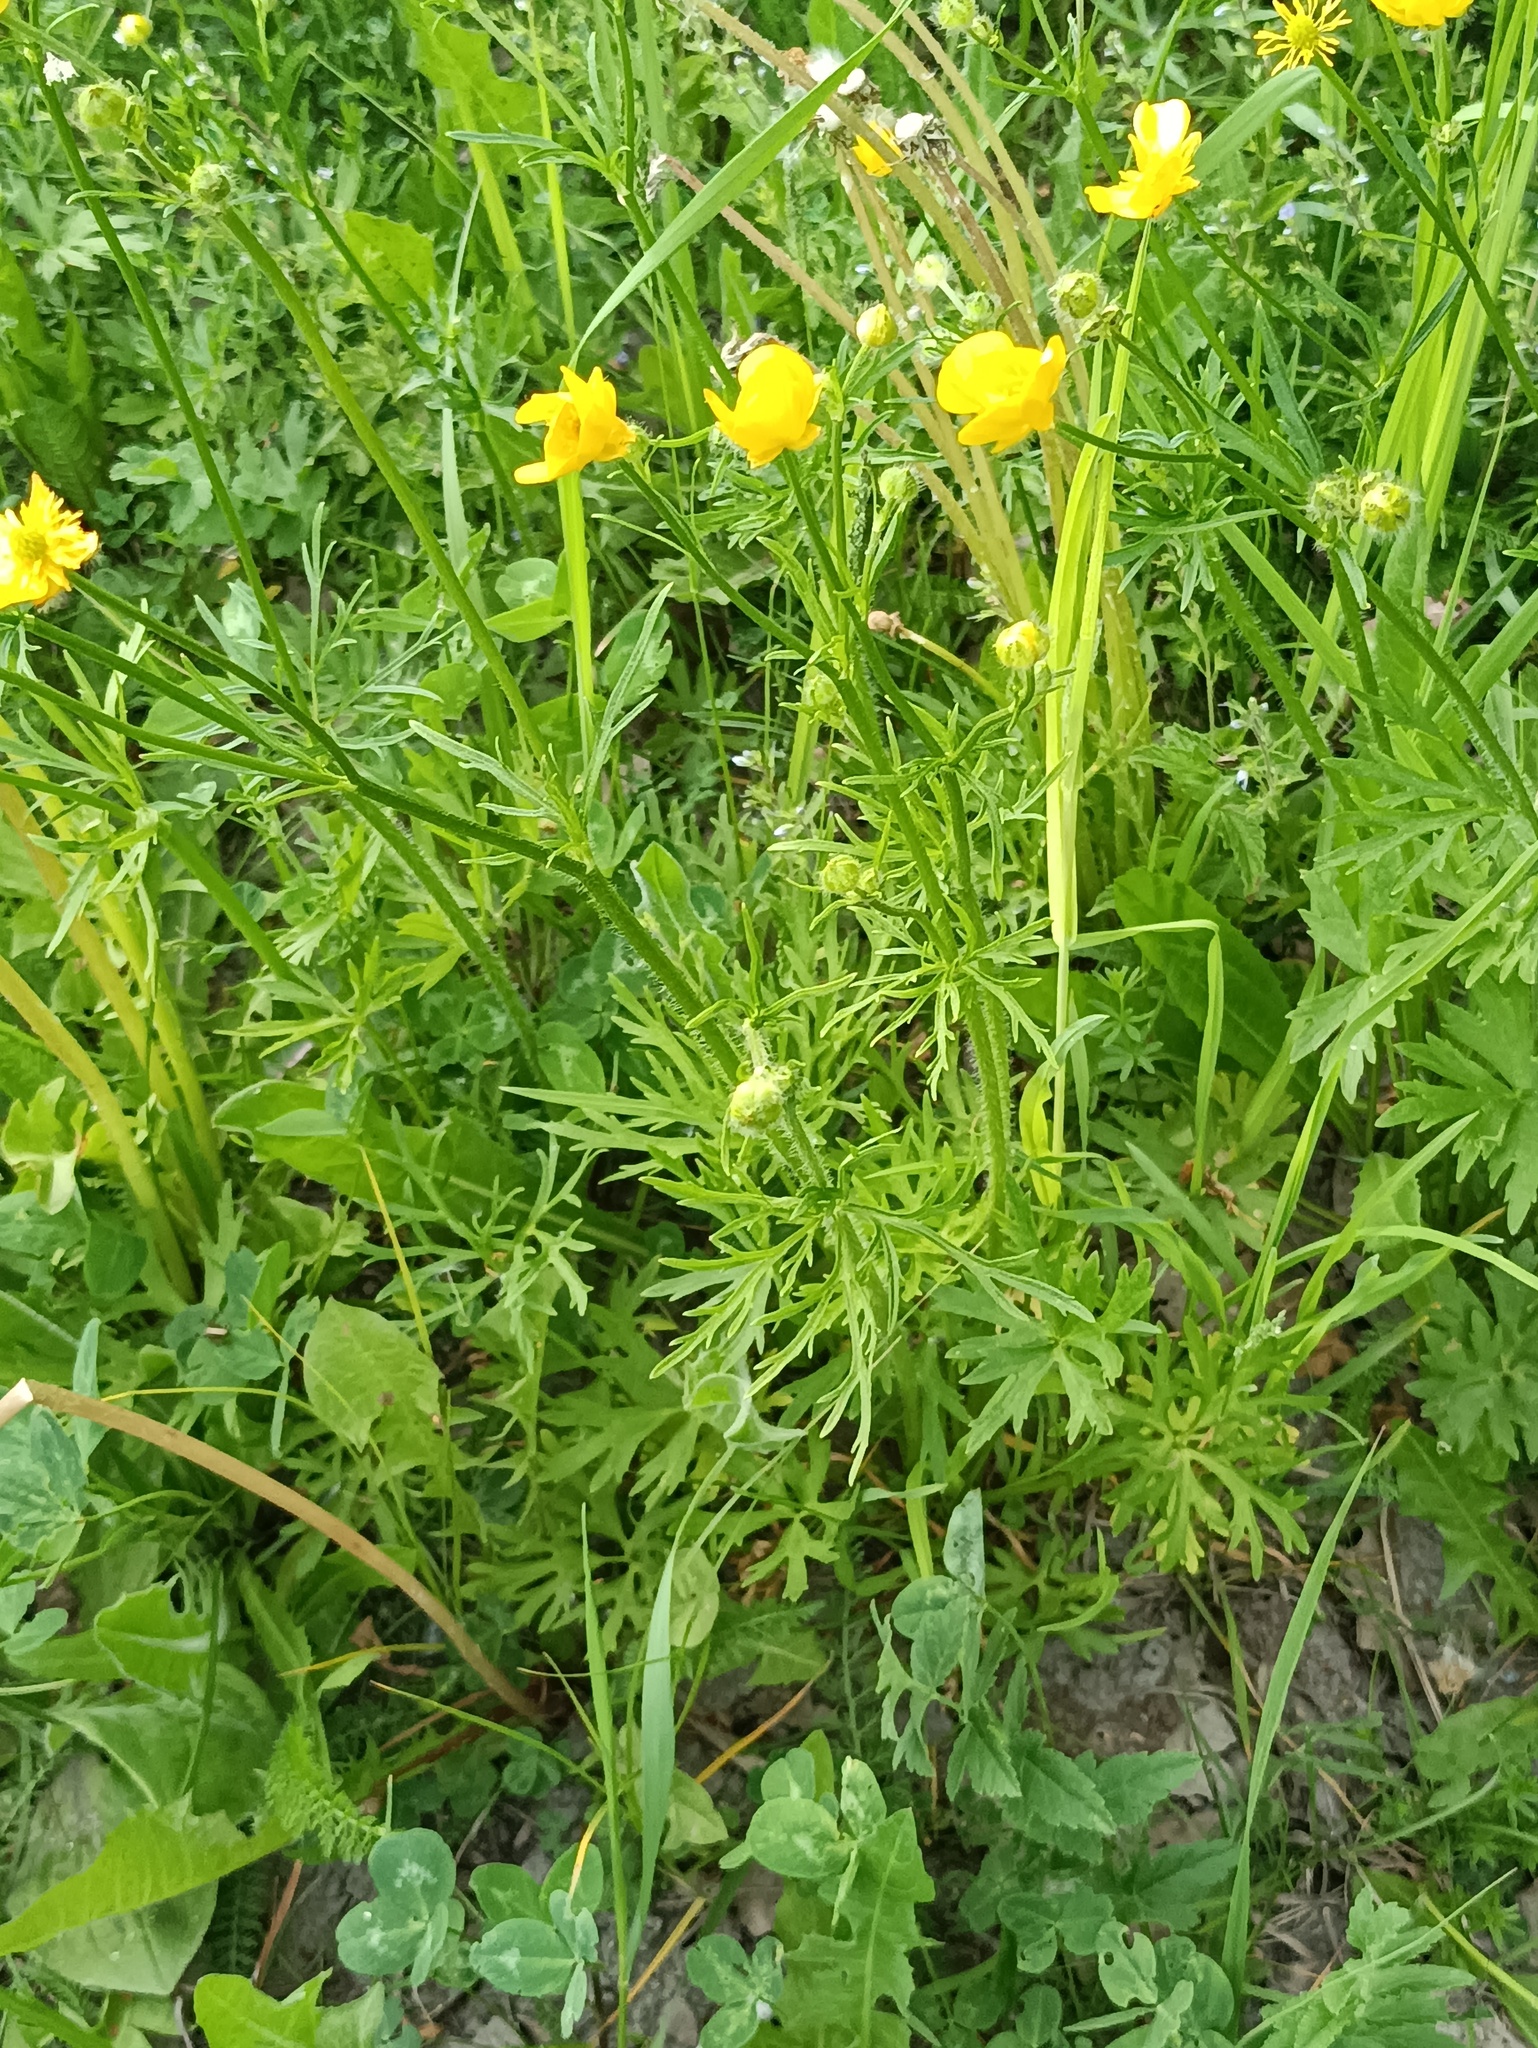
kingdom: Plantae
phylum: Tracheophyta
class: Magnoliopsida
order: Ranunculales
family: Ranunculaceae
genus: Ranunculus
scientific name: Ranunculus polyanthemos
